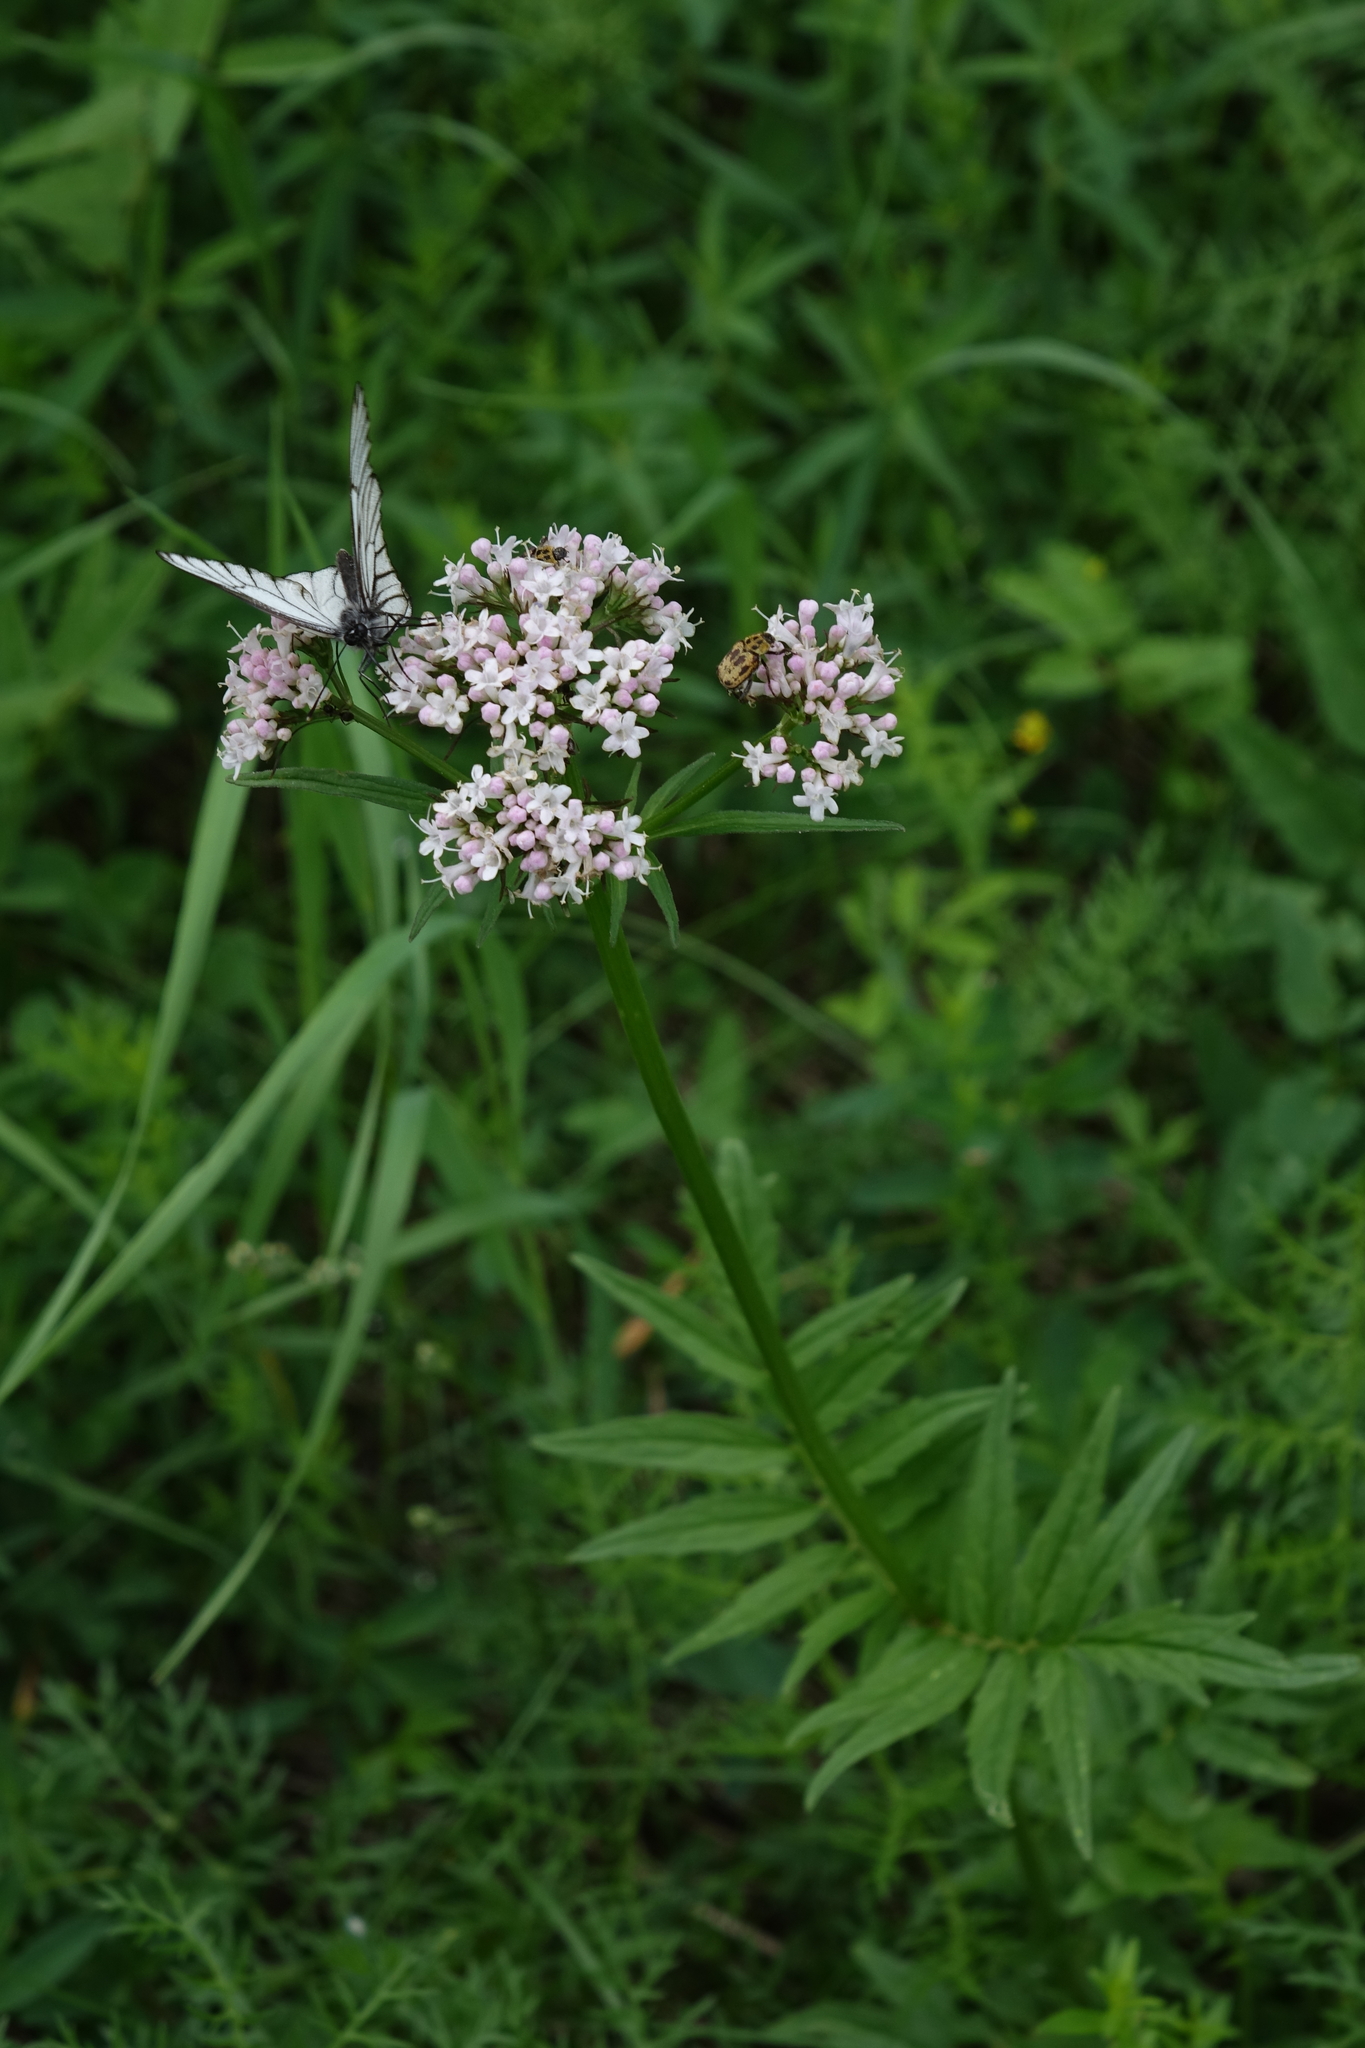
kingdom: Plantae
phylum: Tracheophyta
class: Magnoliopsida
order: Dipsacales
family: Caprifoliaceae
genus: Valeriana
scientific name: Valeriana transjenisensis
